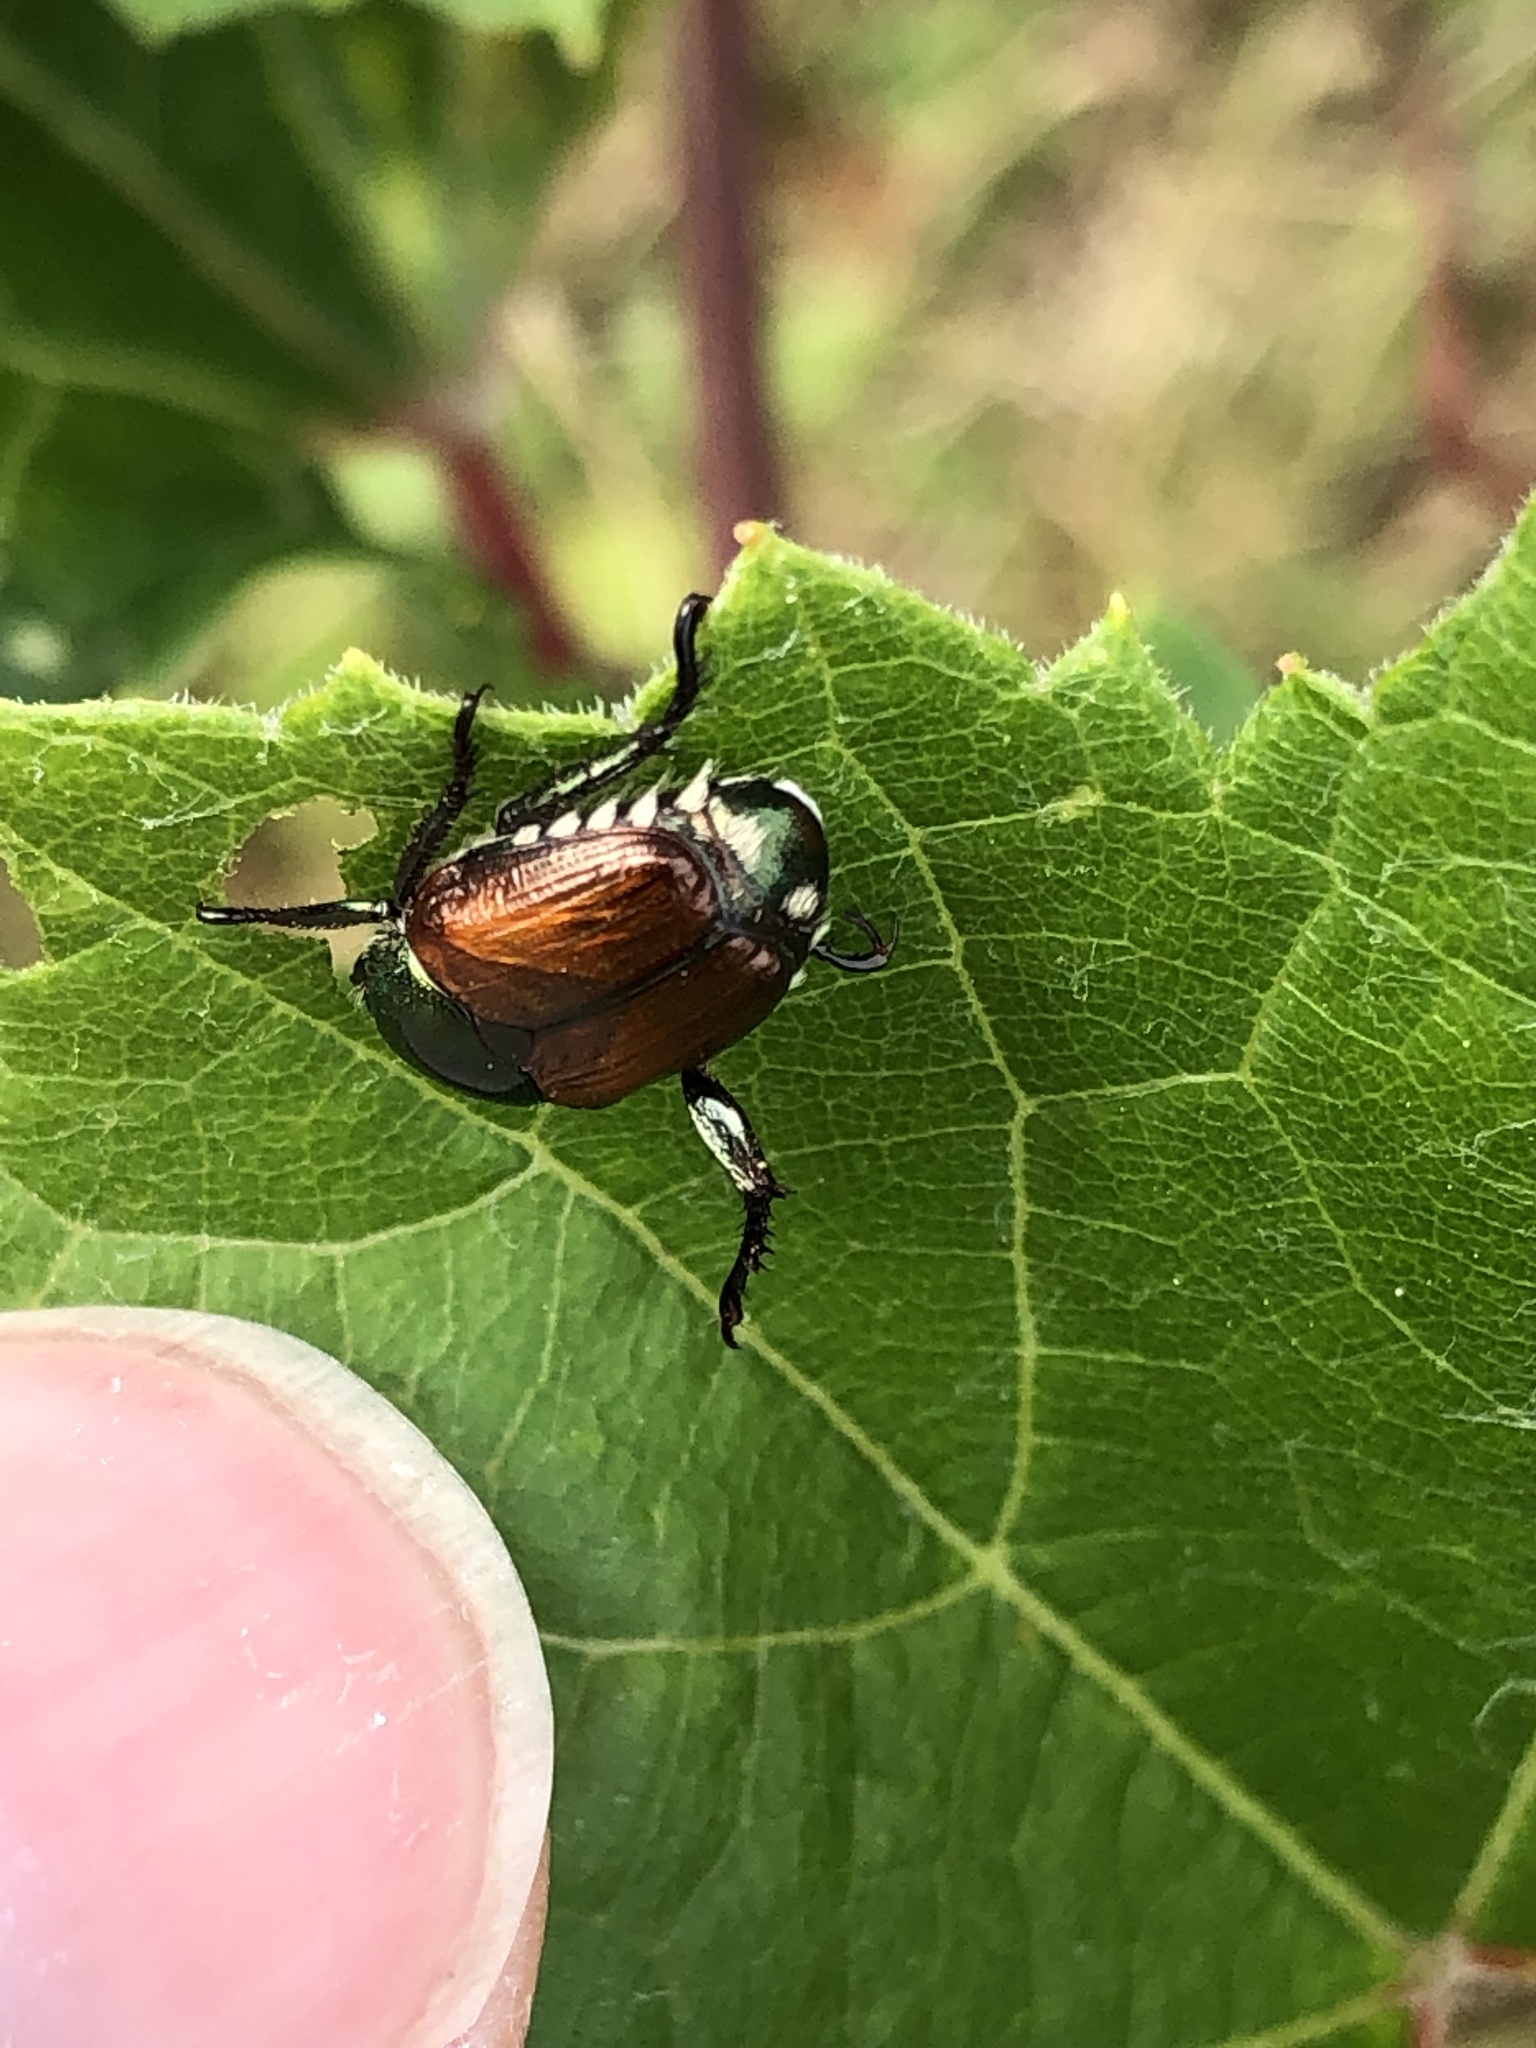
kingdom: Animalia
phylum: Arthropoda
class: Insecta
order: Coleoptera
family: Scarabaeidae
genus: Popillia
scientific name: Popillia japonica
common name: Japanese beetle
